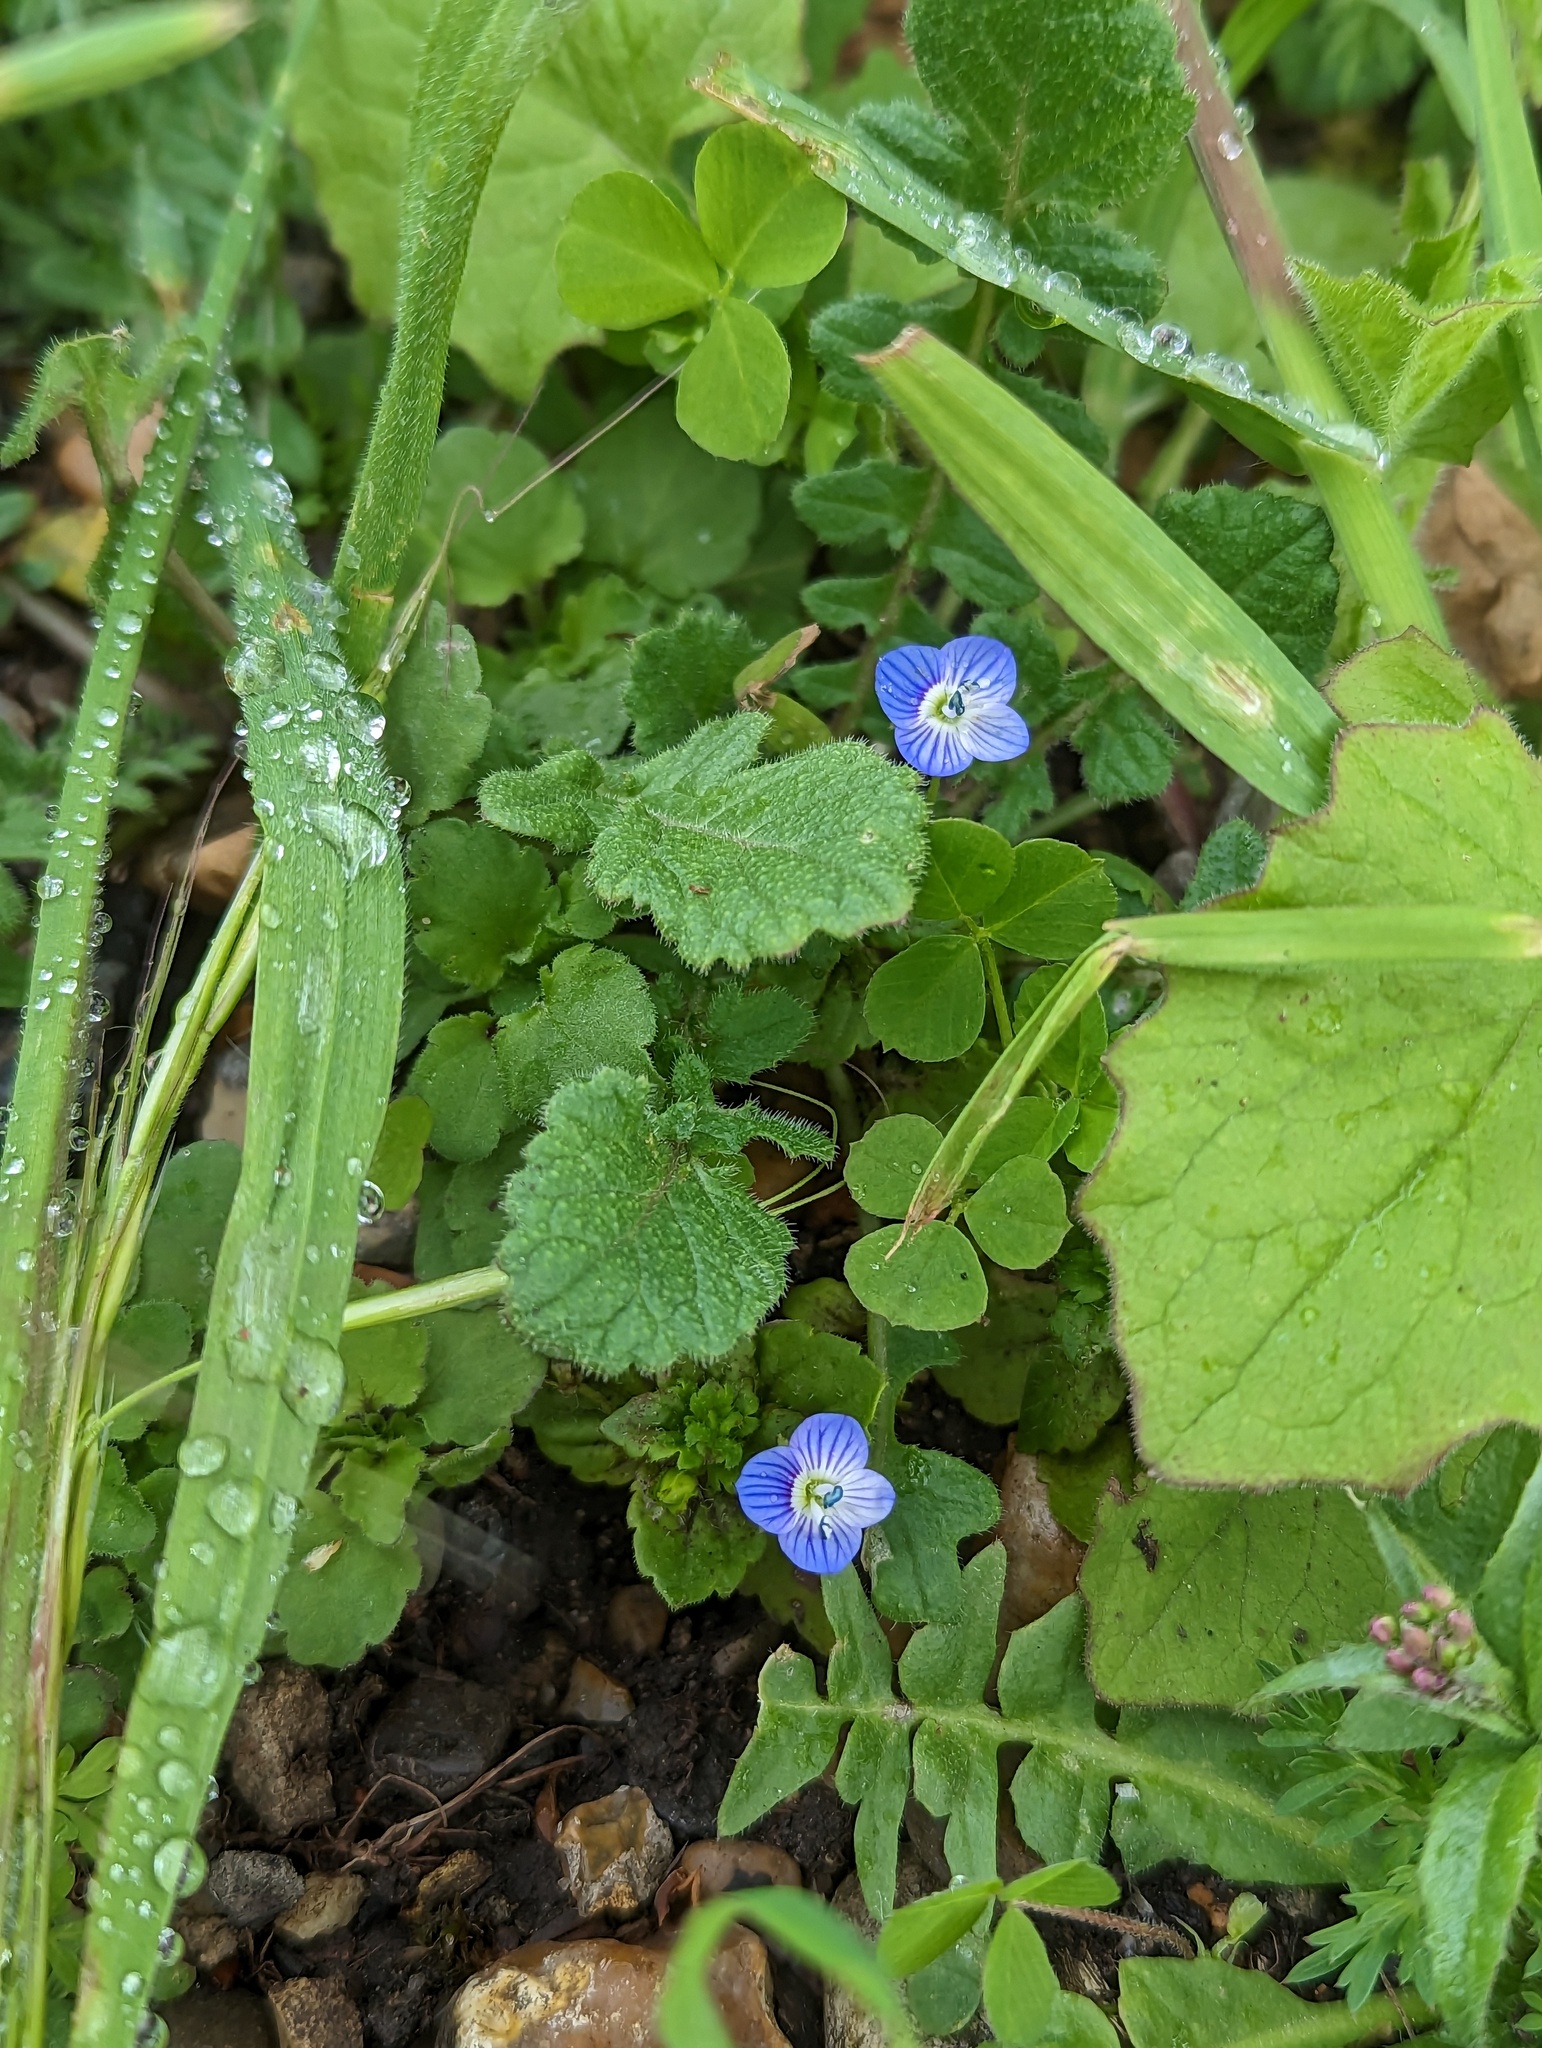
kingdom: Plantae
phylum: Tracheophyta
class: Magnoliopsida
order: Lamiales
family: Plantaginaceae
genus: Veronica
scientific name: Veronica persica
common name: Common field-speedwell
